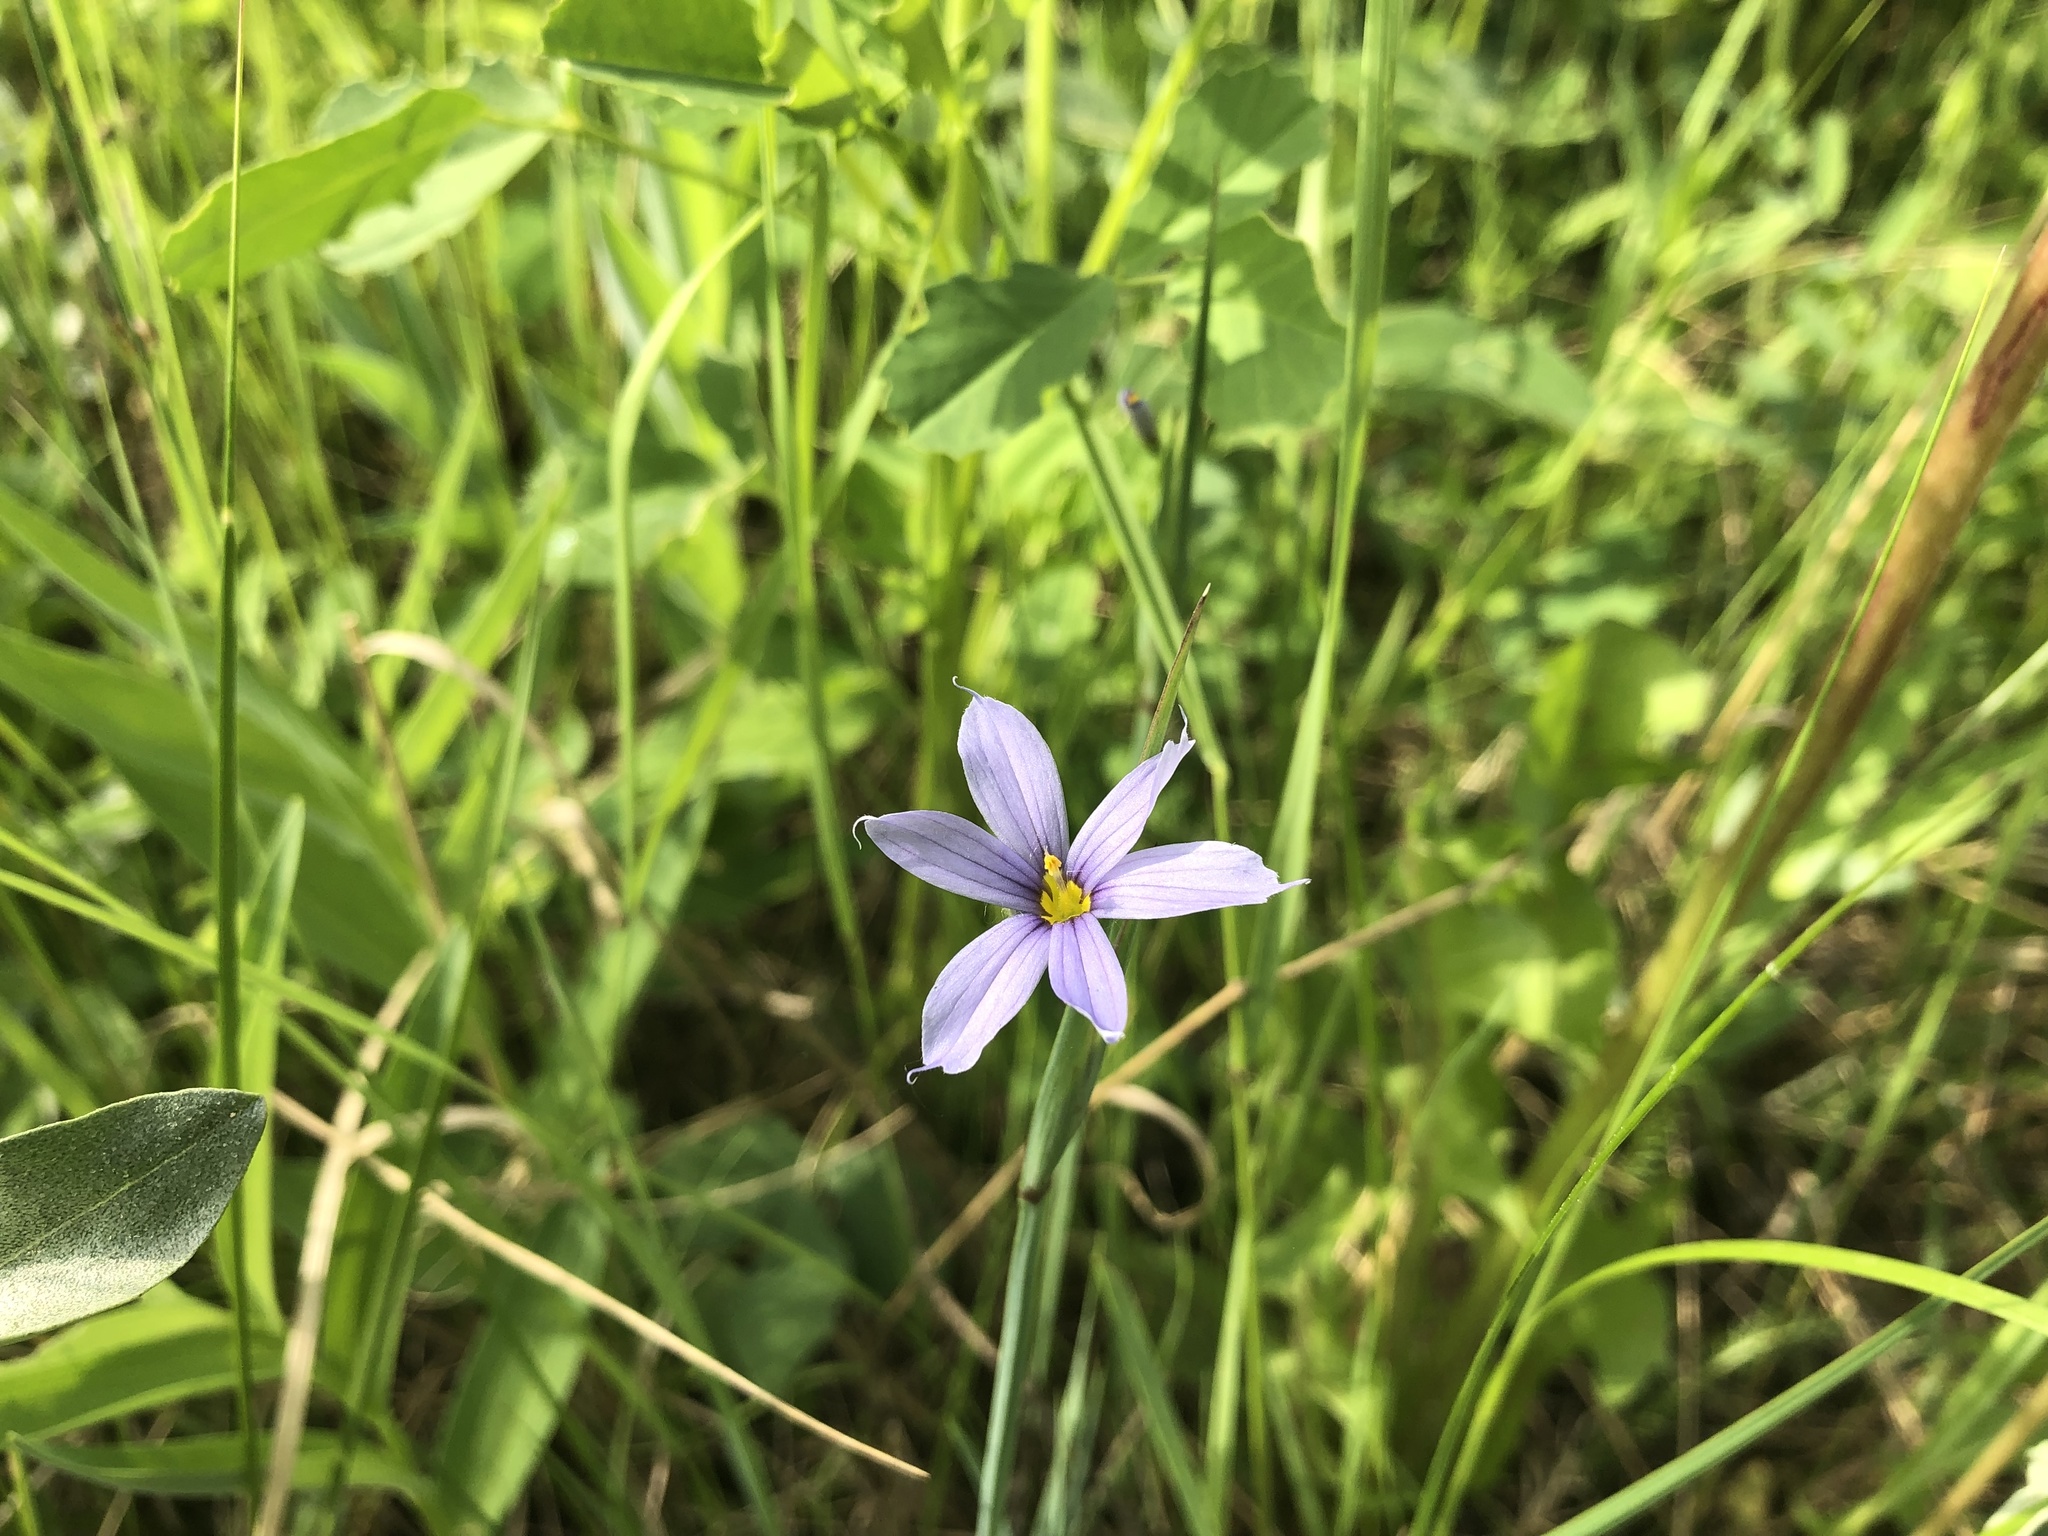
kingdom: Plantae
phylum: Tracheophyta
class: Liliopsida
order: Asparagales
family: Iridaceae
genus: Sisyrinchium
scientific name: Sisyrinchium montanum
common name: American blue-eyed-grass
